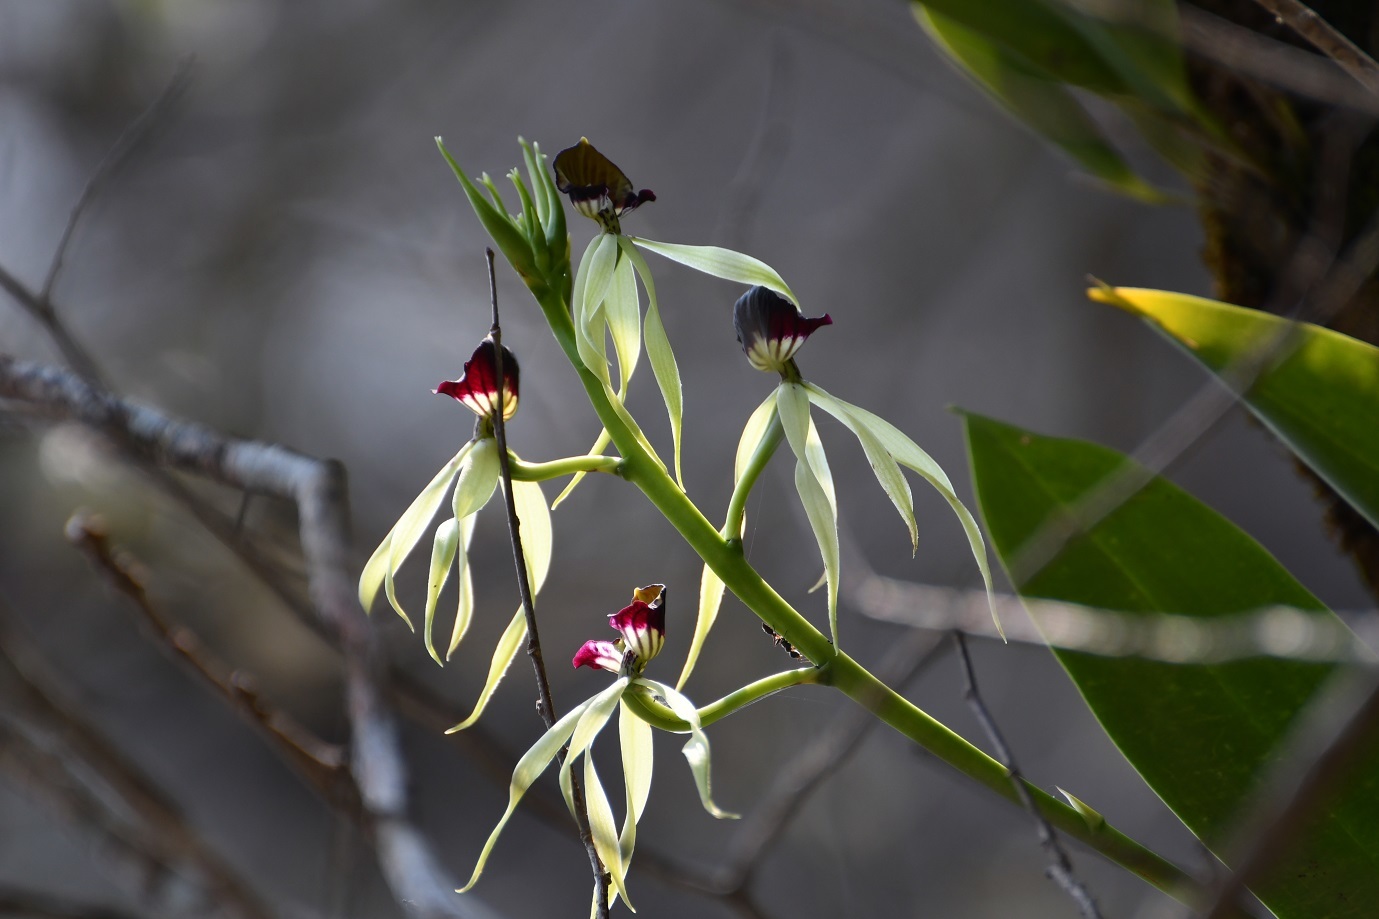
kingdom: Plantae
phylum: Tracheophyta
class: Liliopsida
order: Asparagales
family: Orchidaceae
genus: Prosthechea
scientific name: Prosthechea cochleata
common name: Clamshell orchid
